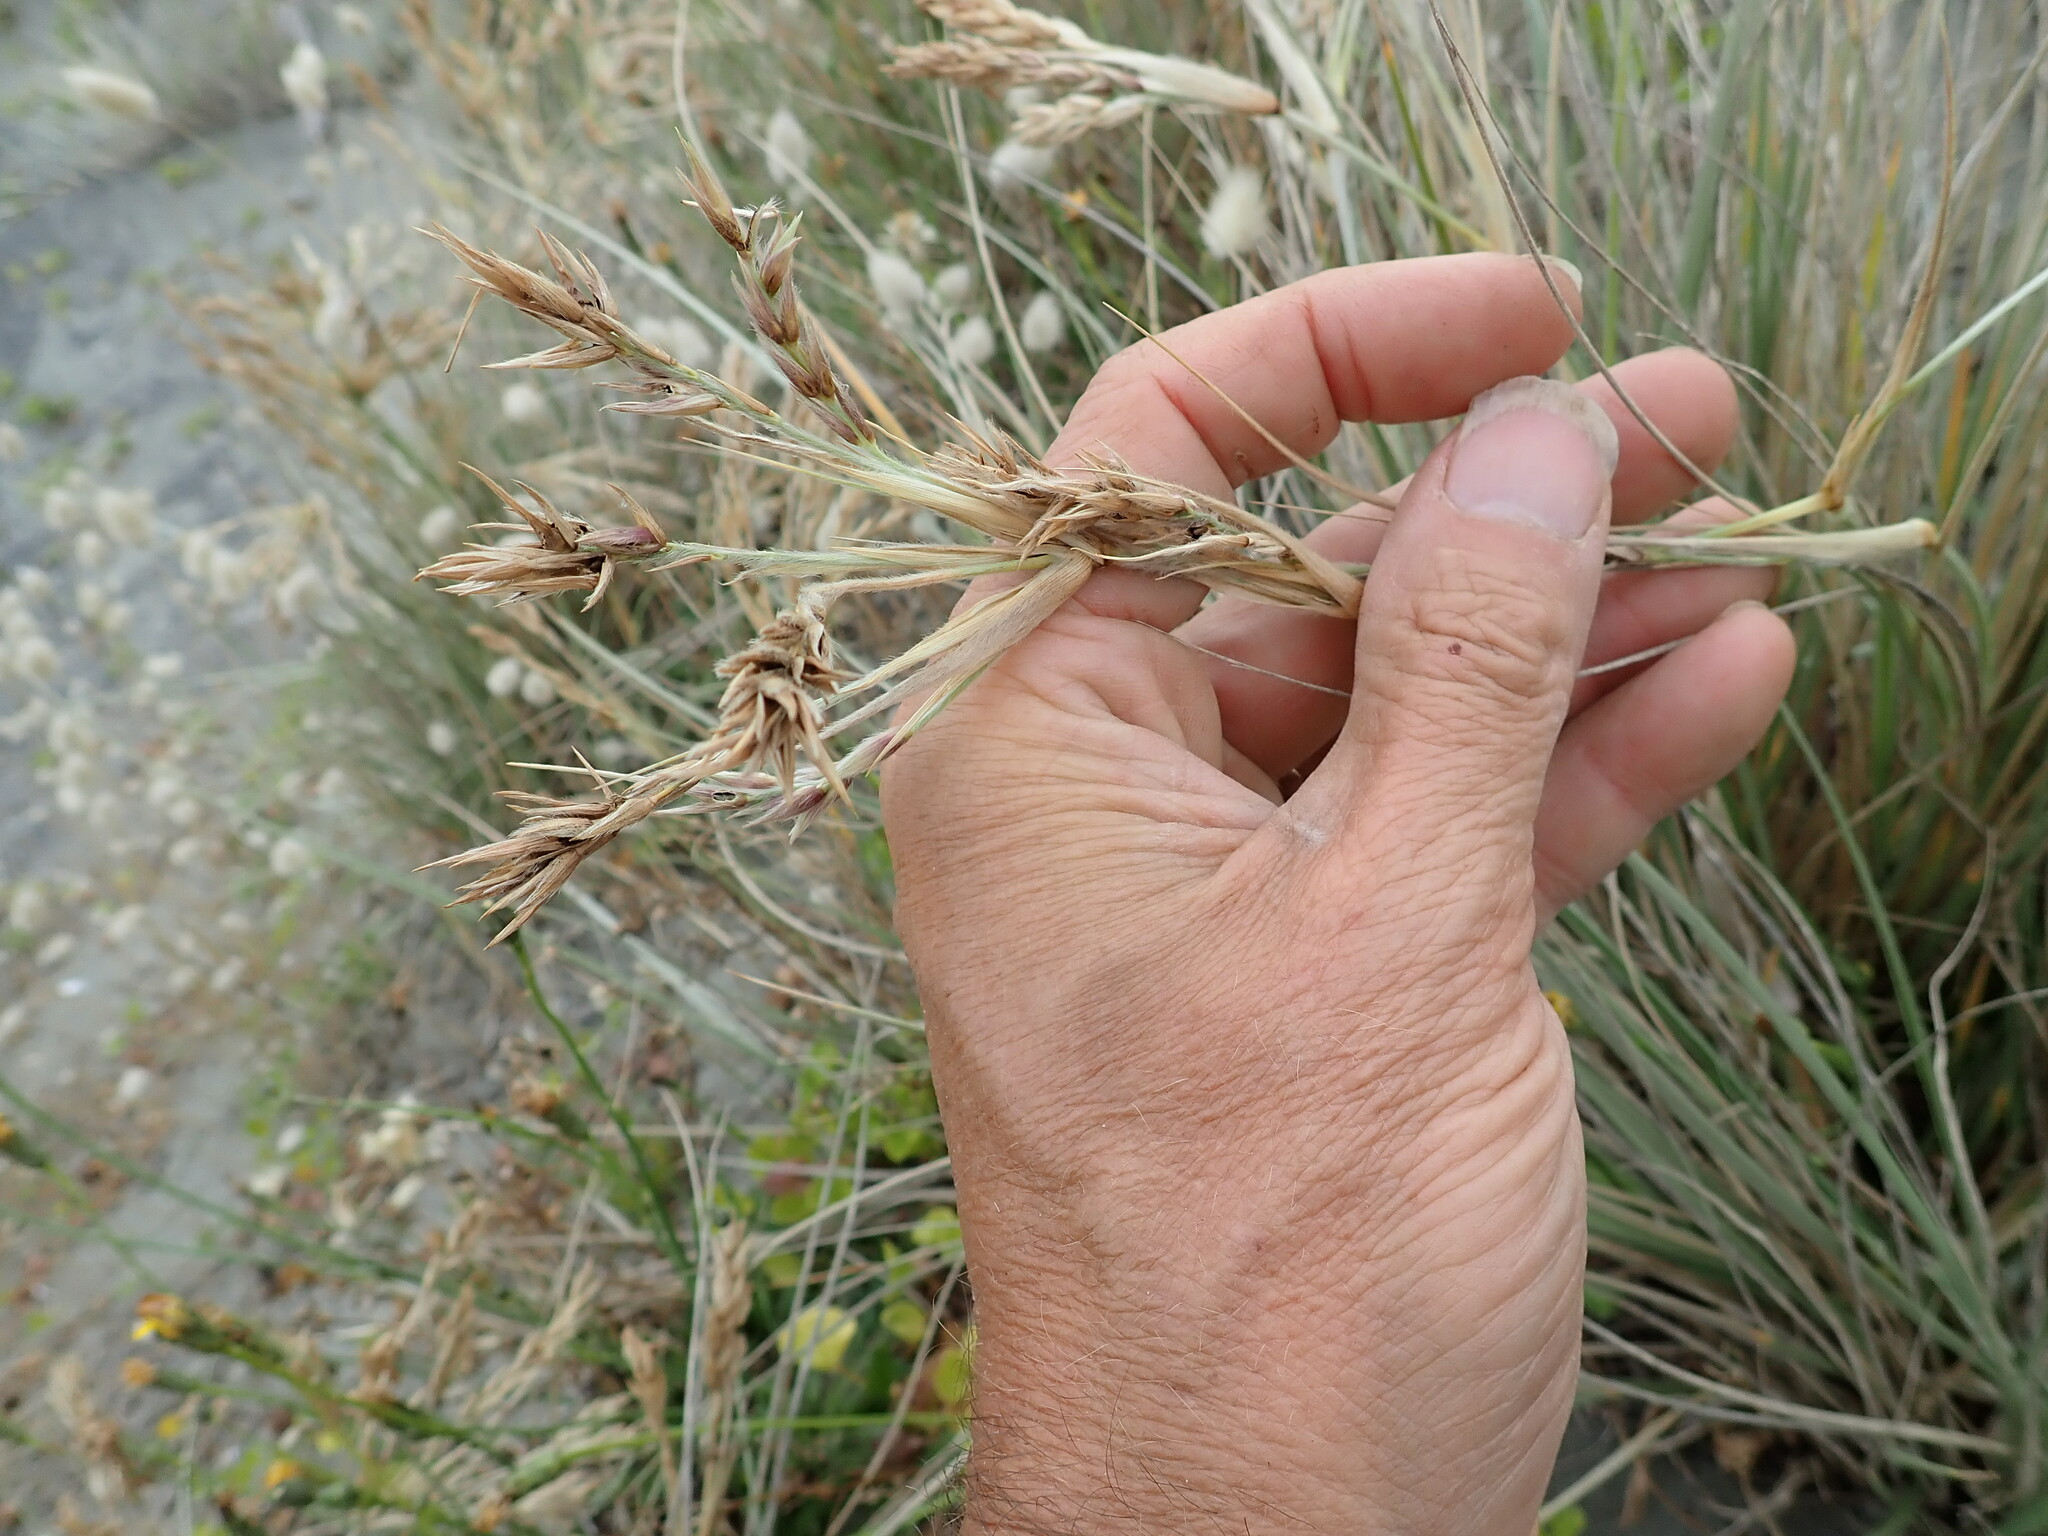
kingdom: Plantae
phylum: Tracheophyta
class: Liliopsida
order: Poales
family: Poaceae
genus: Spinifex
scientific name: Spinifex sericeus
